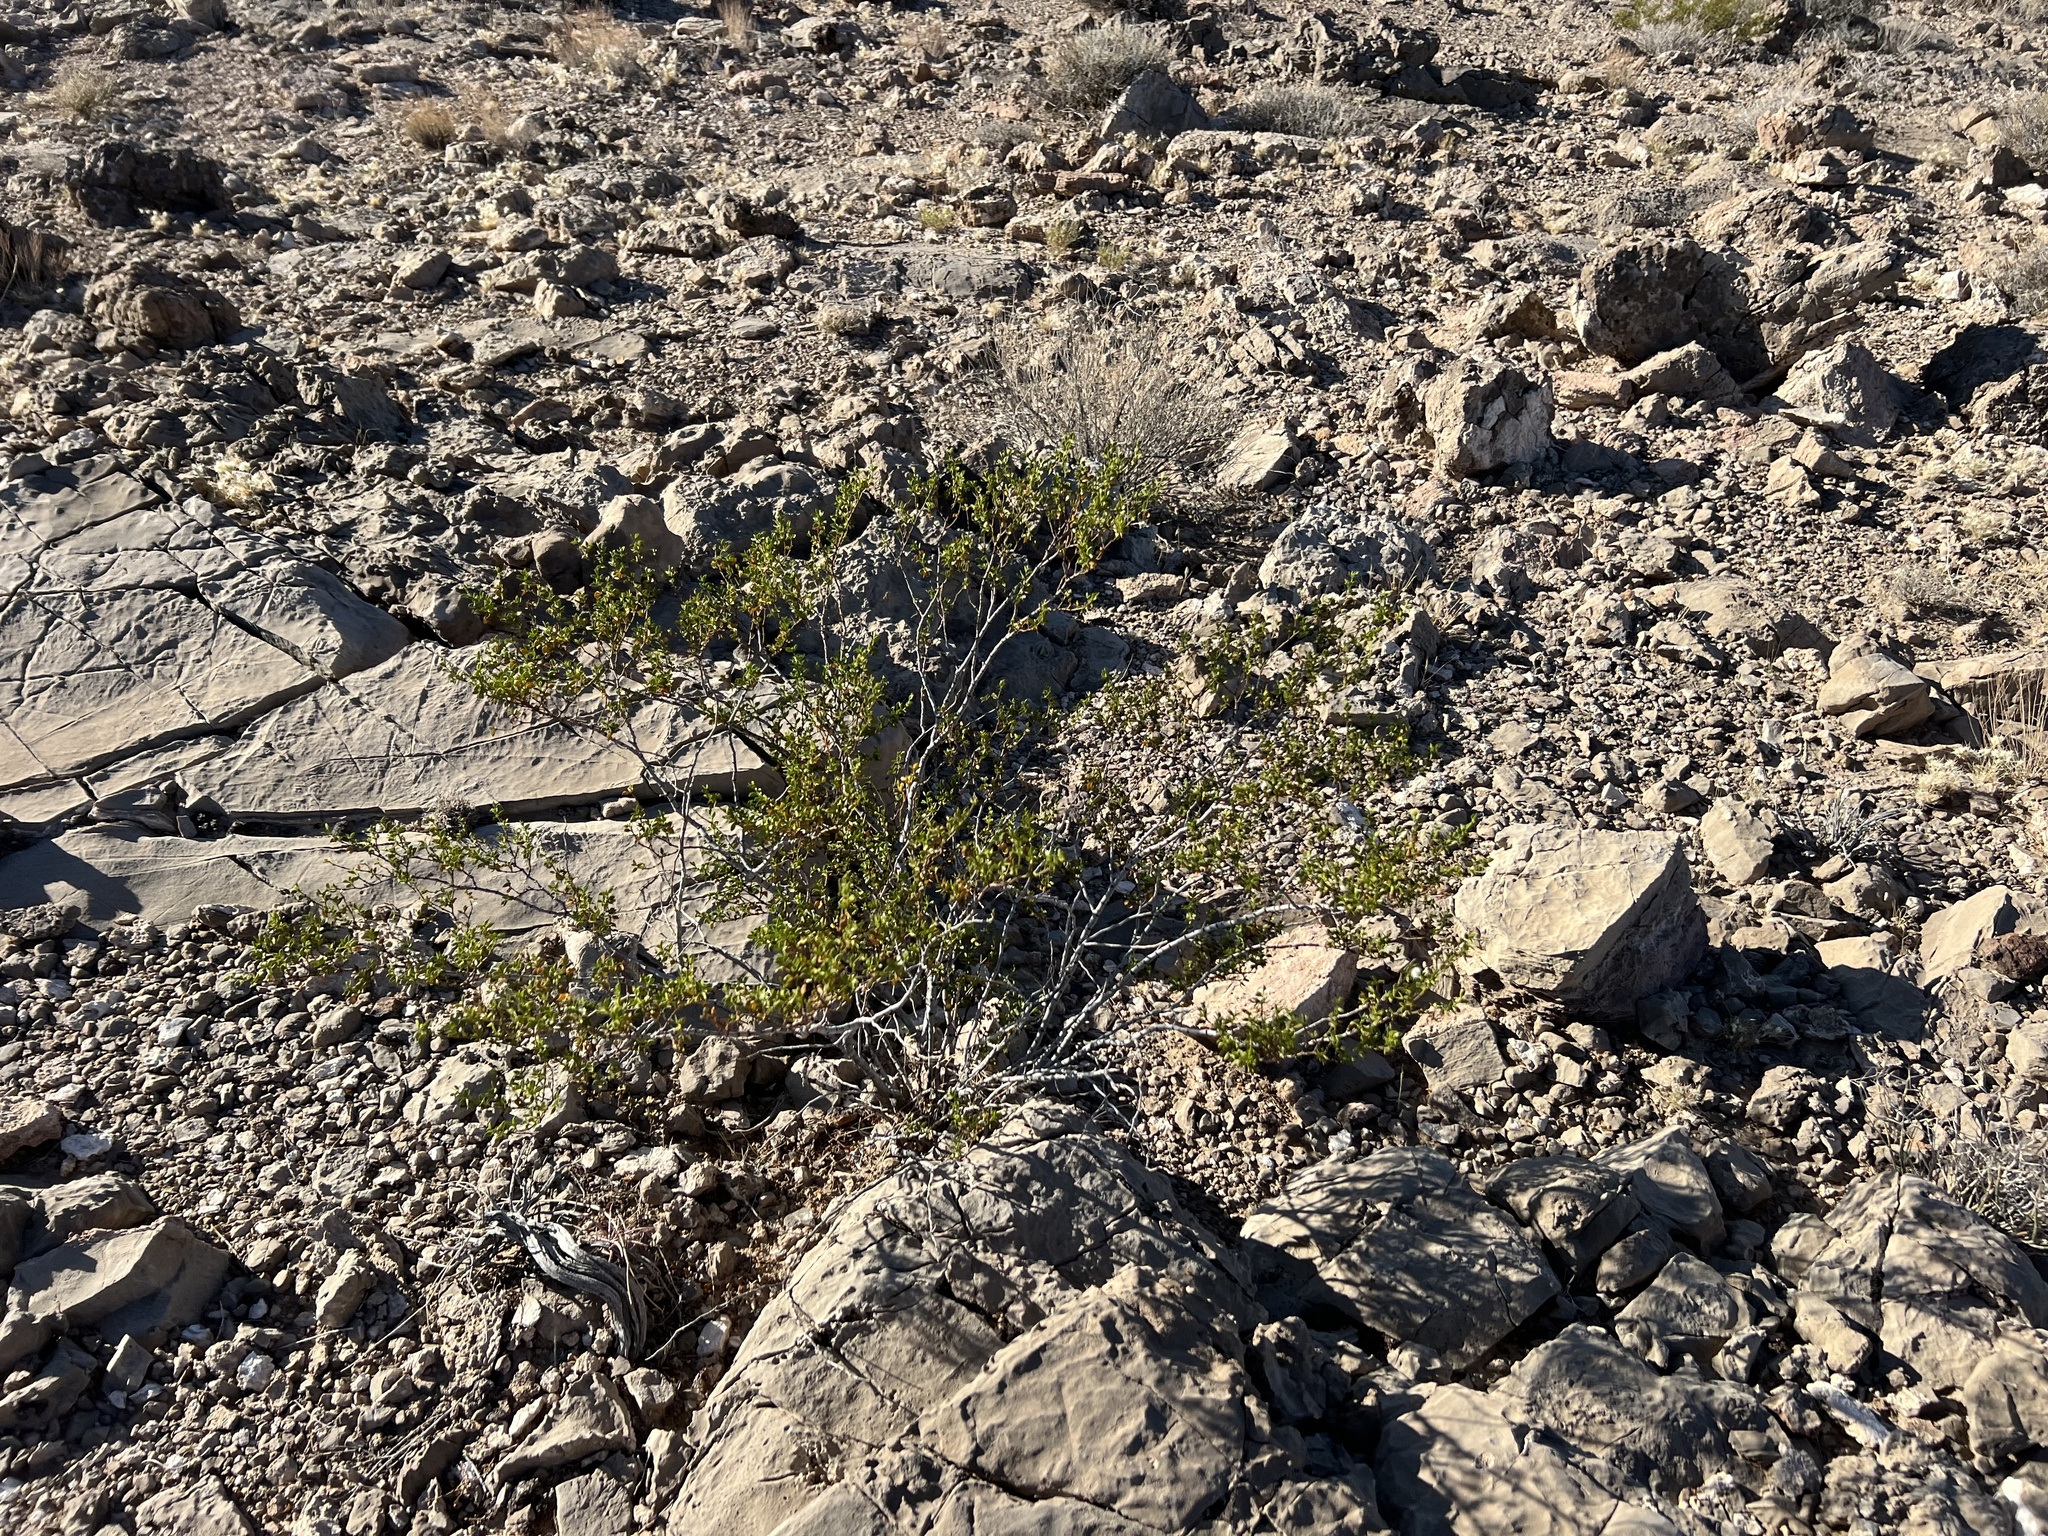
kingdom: Plantae
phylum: Tracheophyta
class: Magnoliopsida
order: Zygophyllales
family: Zygophyllaceae
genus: Larrea
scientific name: Larrea tridentata
